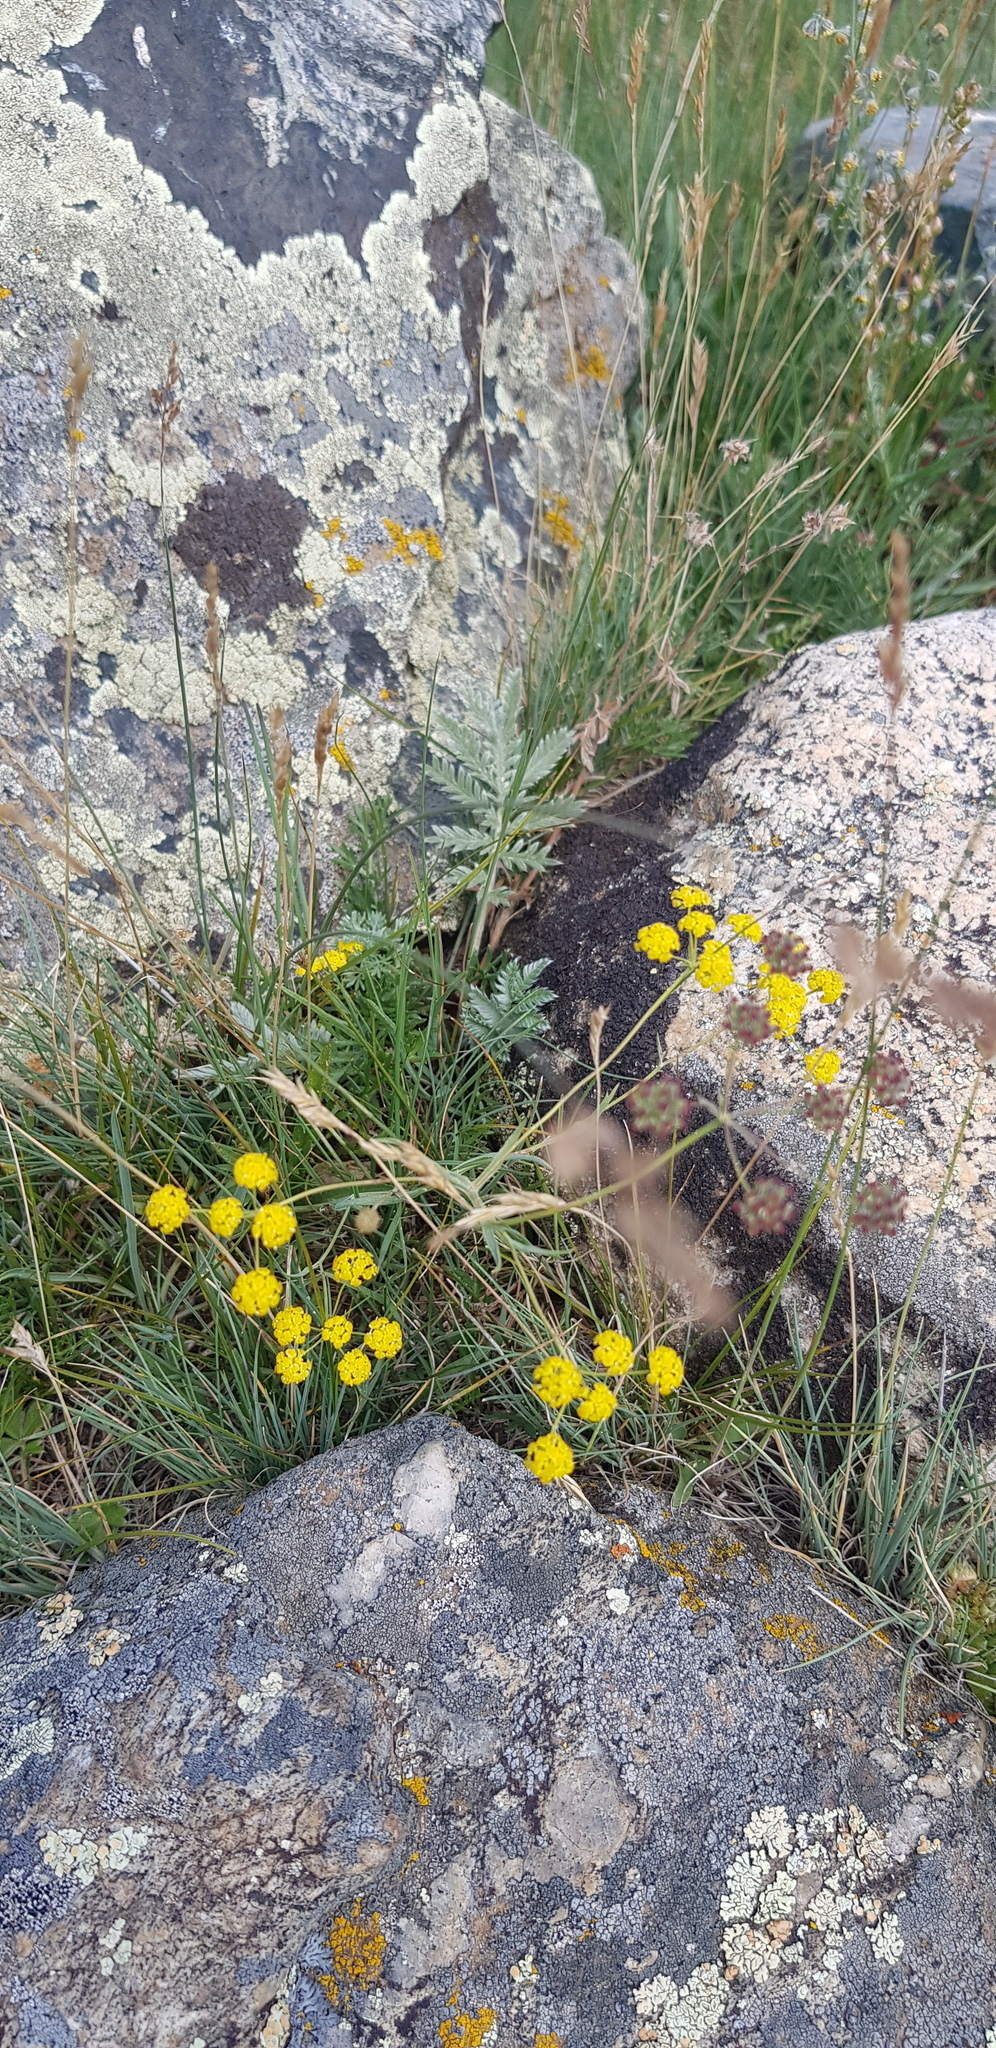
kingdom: Plantae
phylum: Tracheophyta
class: Magnoliopsida
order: Apiales
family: Apiaceae
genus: Bupleurum
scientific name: Bupleurum bicaule
